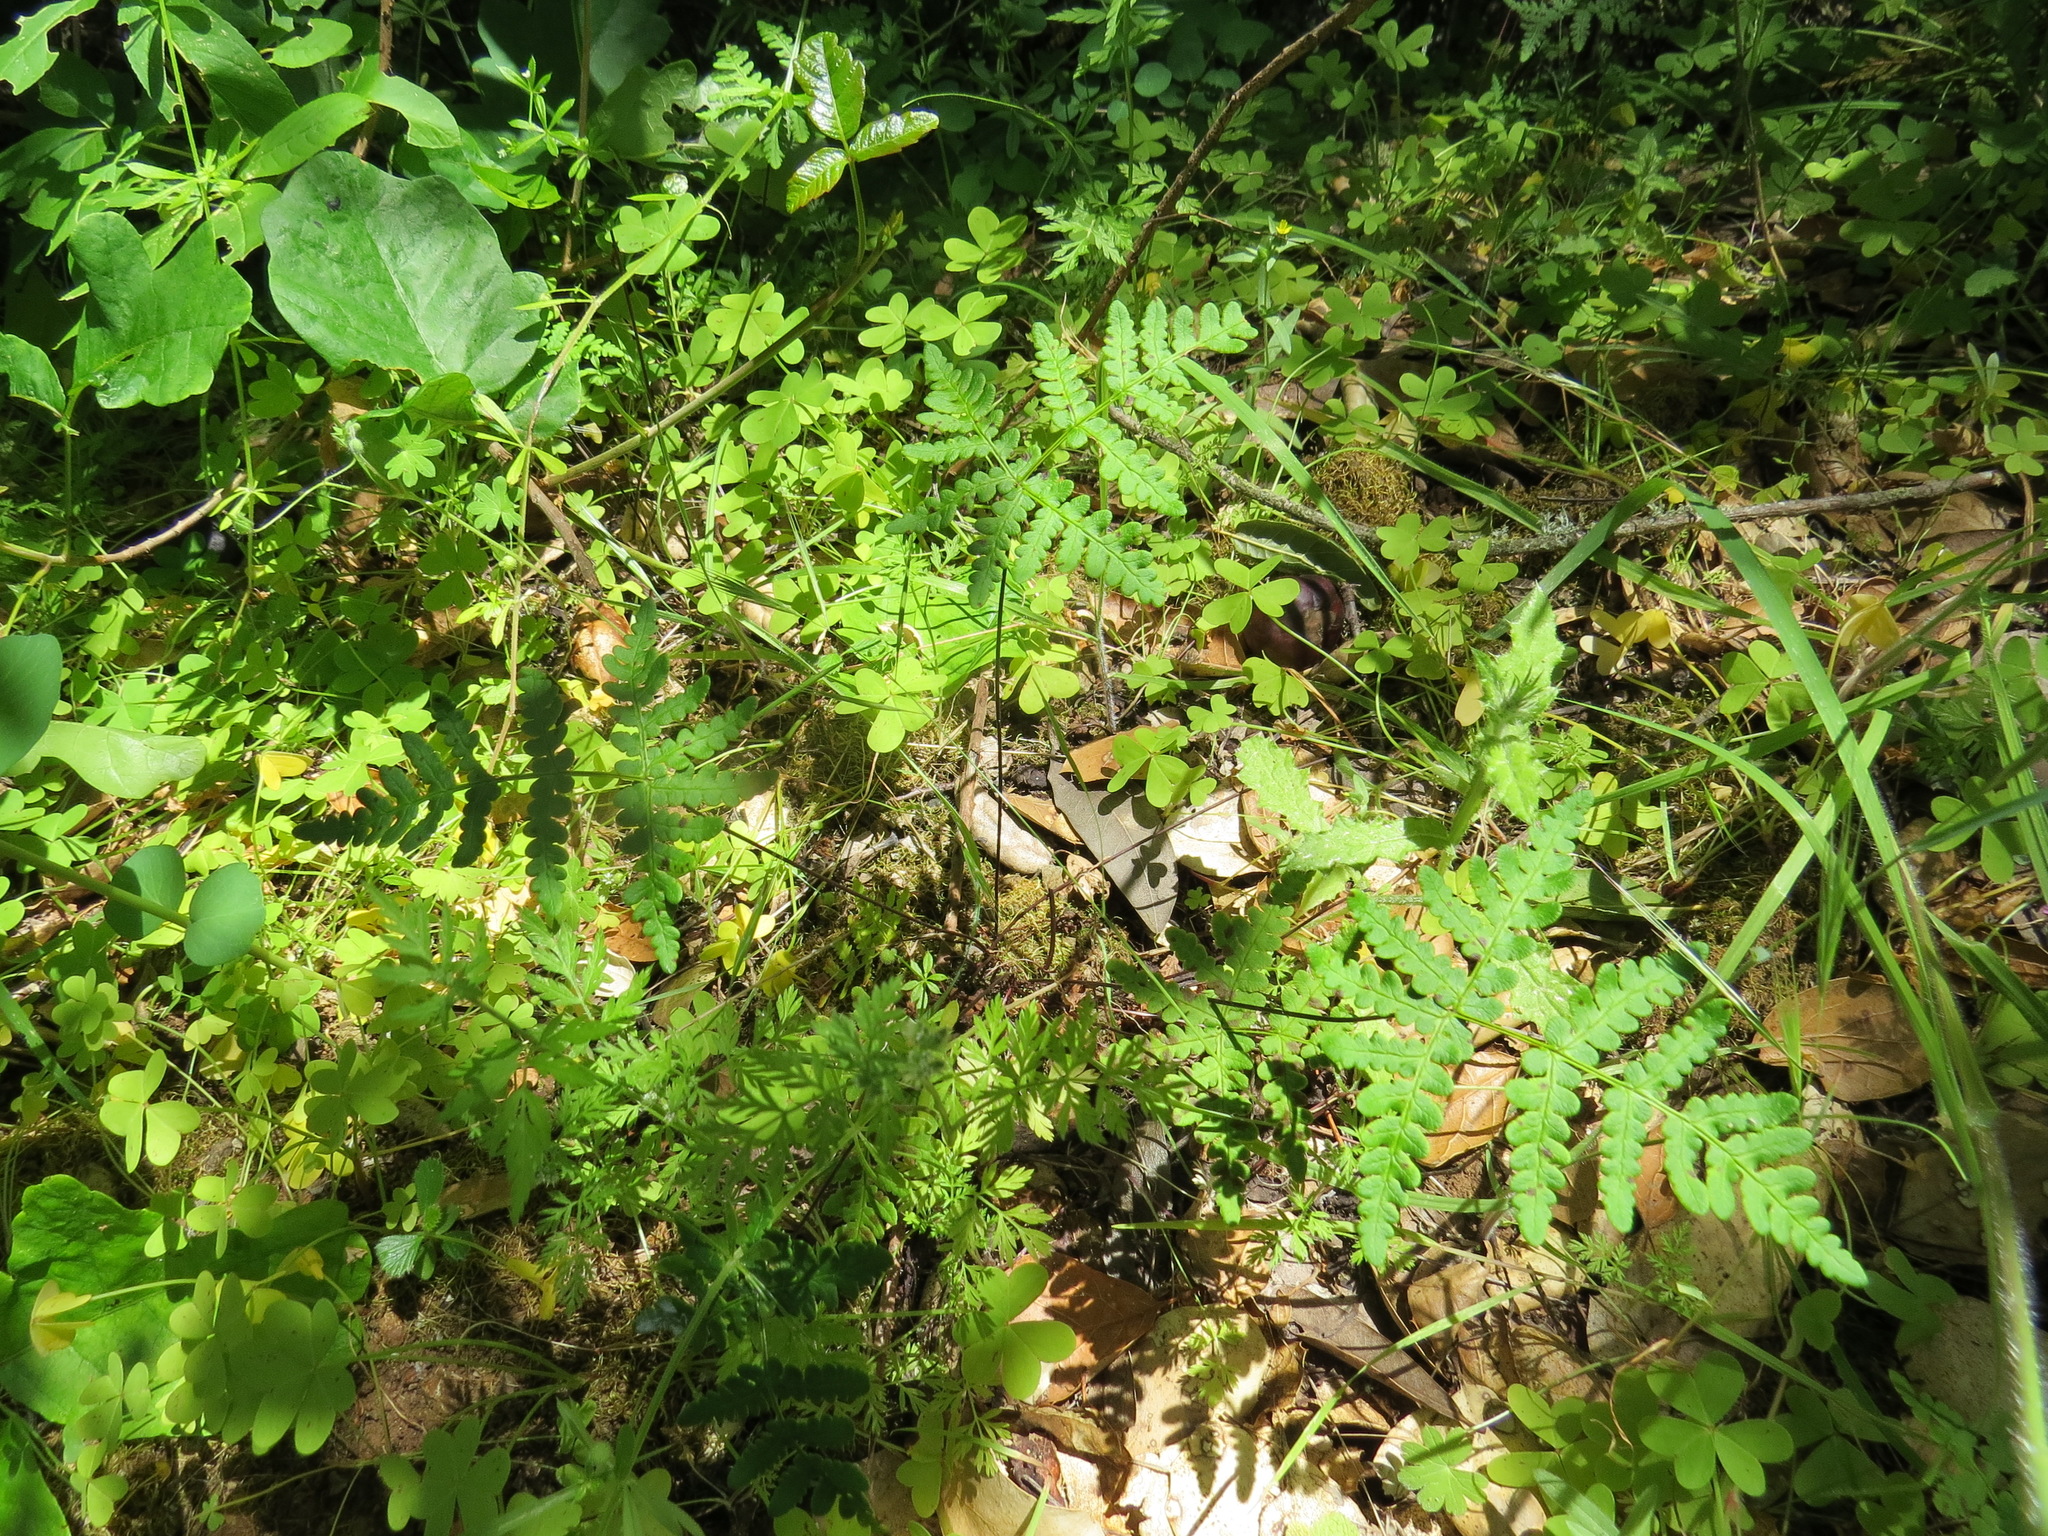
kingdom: Plantae
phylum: Tracheophyta
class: Polypodiopsida
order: Polypodiales
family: Pteridaceae
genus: Pentagramma
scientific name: Pentagramma triangularis
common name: Gold fern
